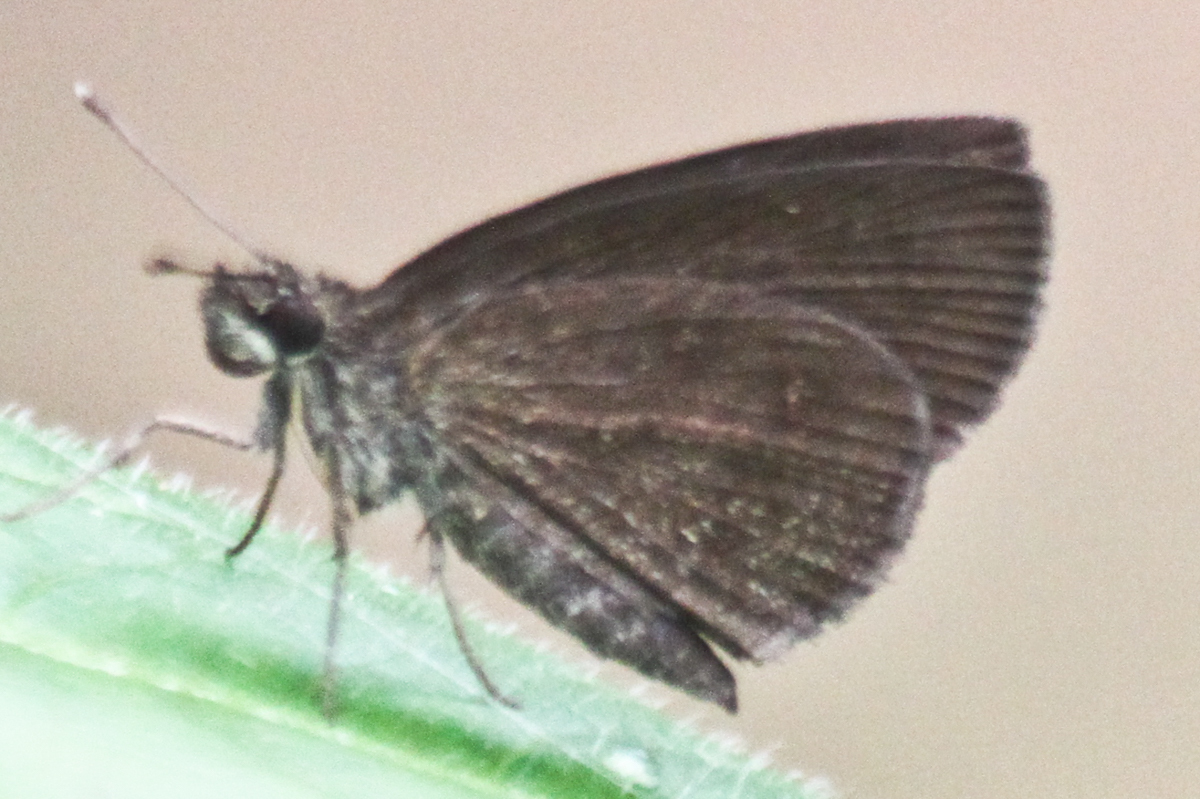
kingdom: Animalia
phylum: Arthropoda
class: Insecta
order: Lepidoptera
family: Hesperiidae
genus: Astictopterus
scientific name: Astictopterus jama
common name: Forest hopper
